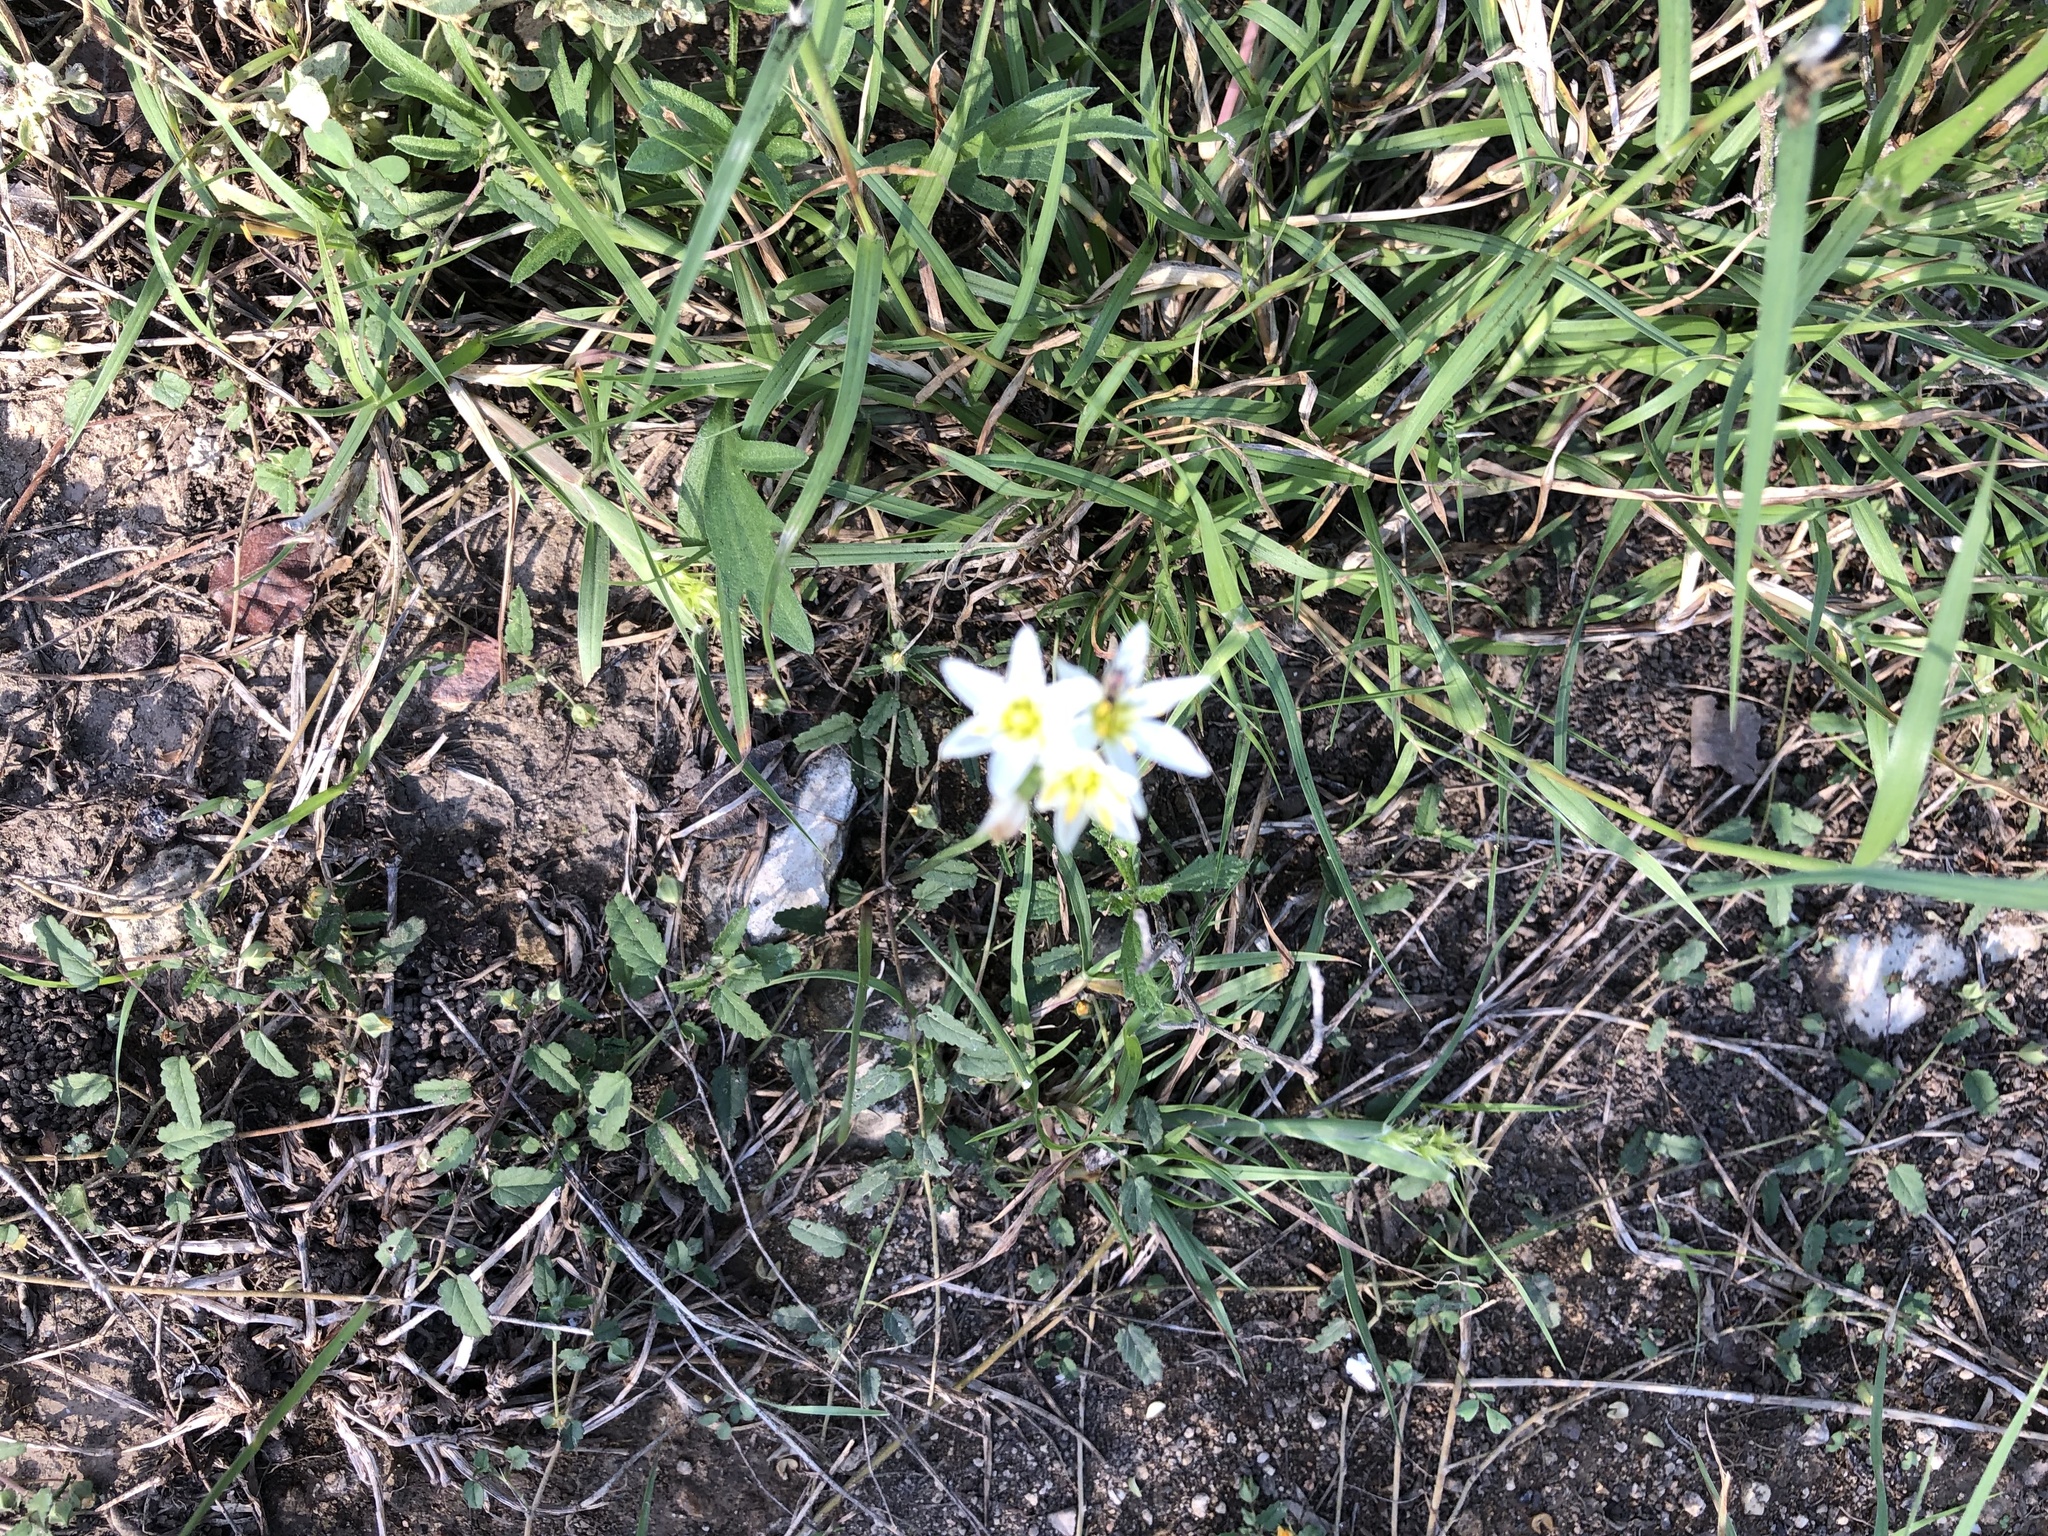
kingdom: Plantae
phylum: Tracheophyta
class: Liliopsida
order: Asparagales
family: Amaryllidaceae
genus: Nothoscordum
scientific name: Nothoscordum bivalve
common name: Crow-poison
